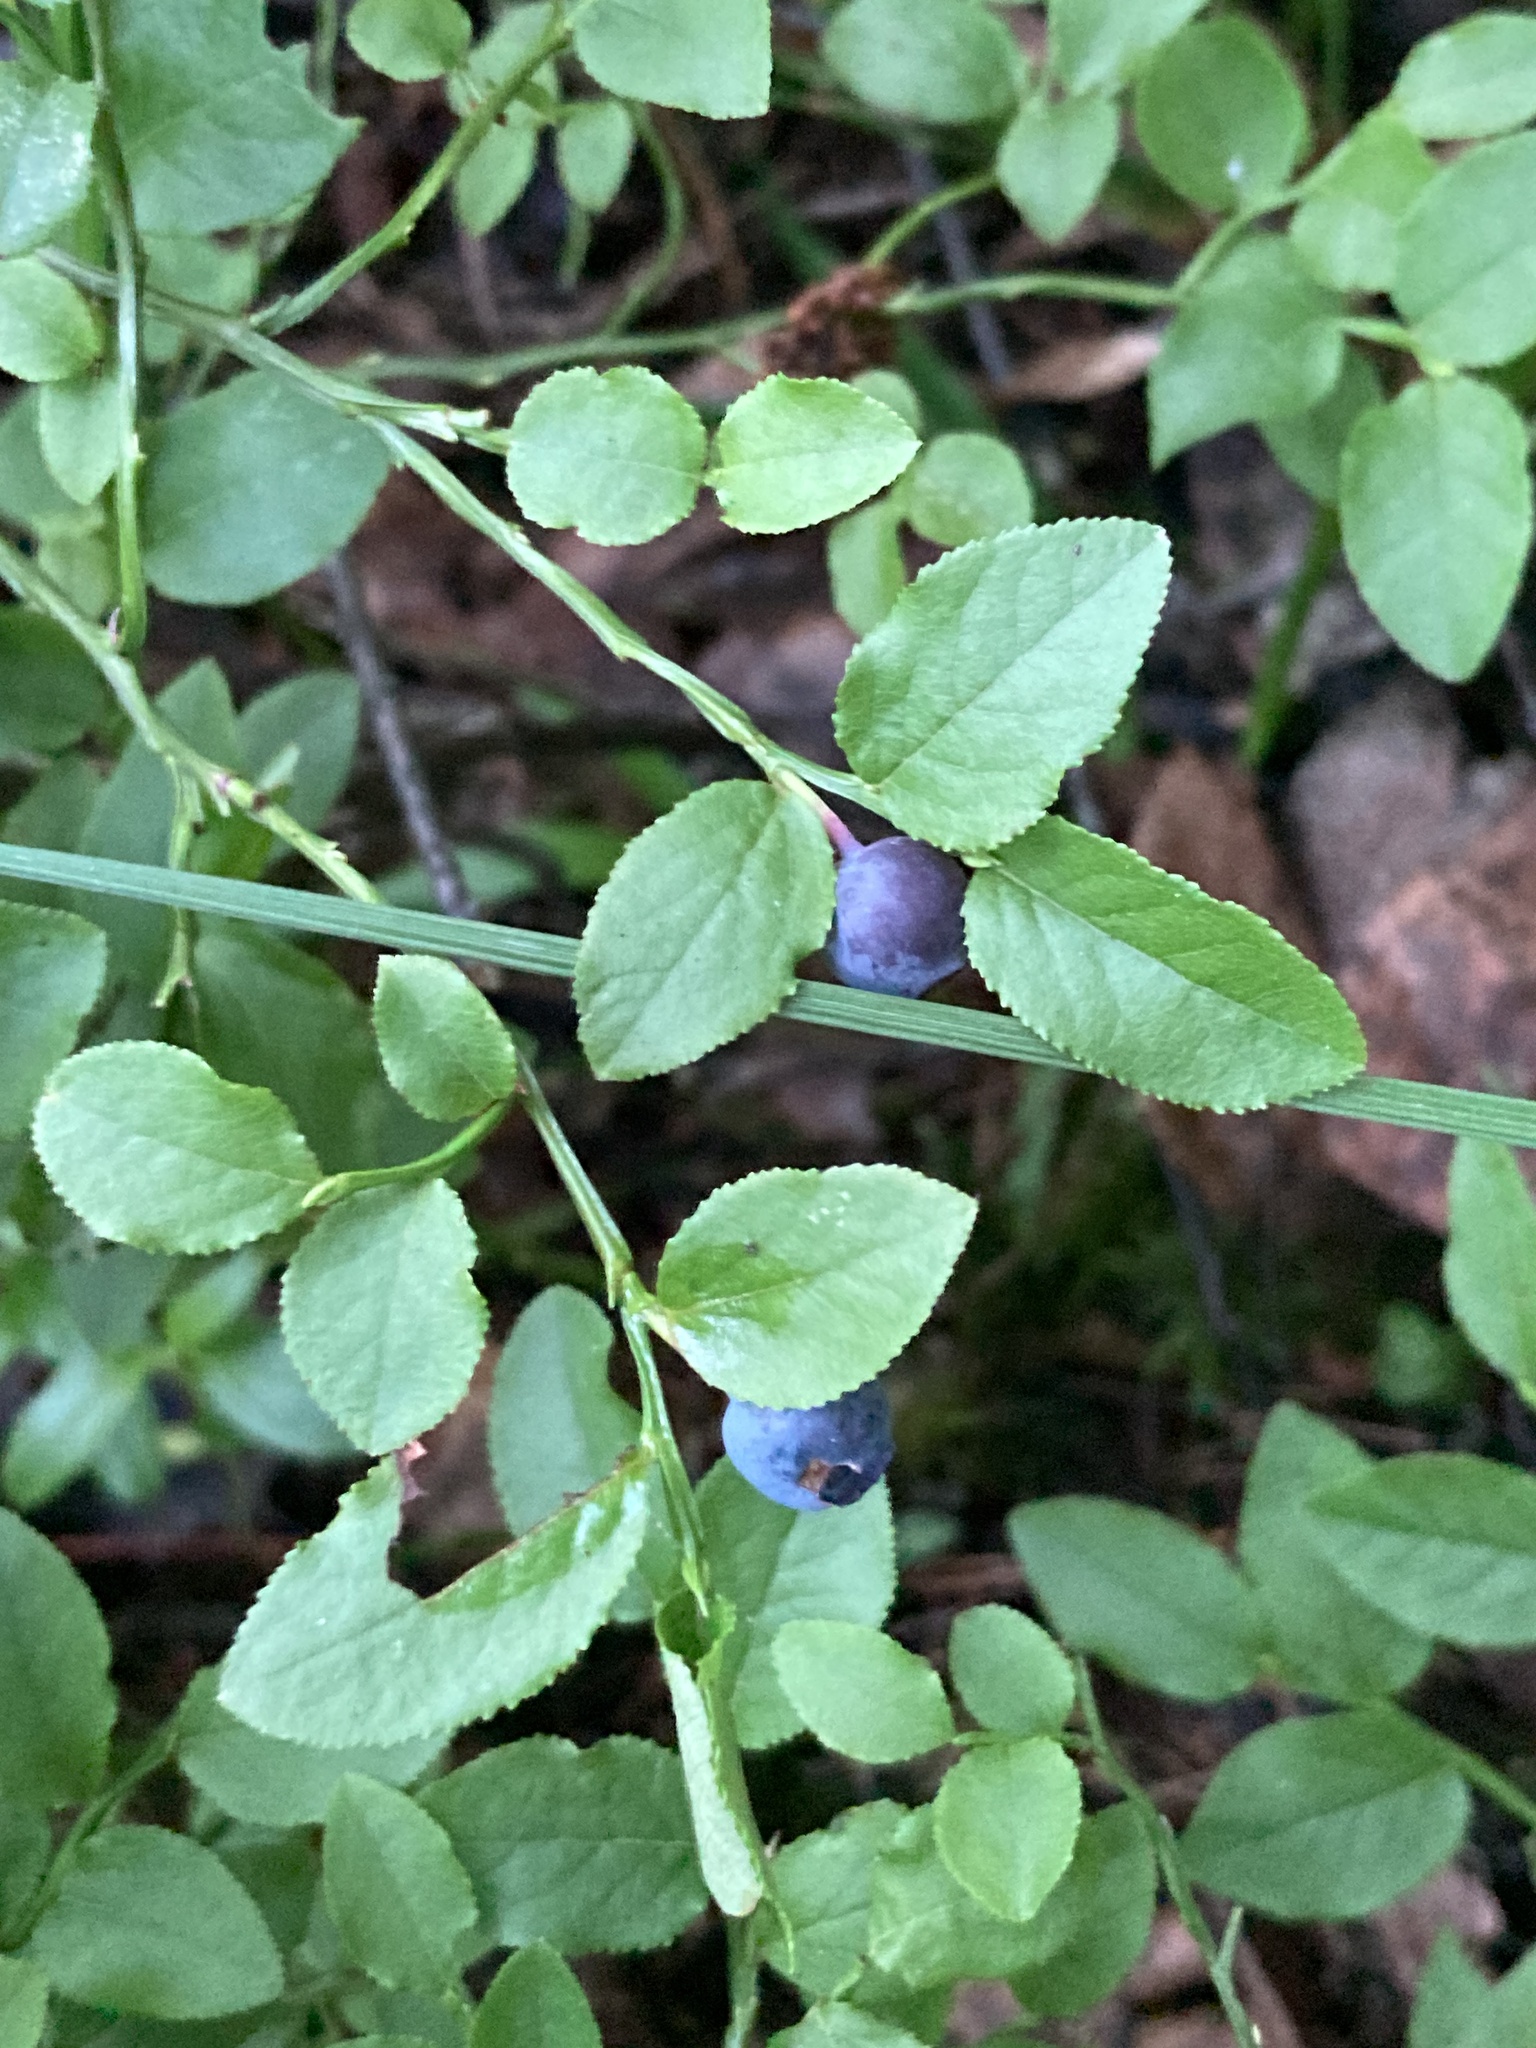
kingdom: Plantae
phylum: Tracheophyta
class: Magnoliopsida
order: Ericales
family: Ericaceae
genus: Vaccinium
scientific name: Vaccinium myrtillus
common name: Bilberry
